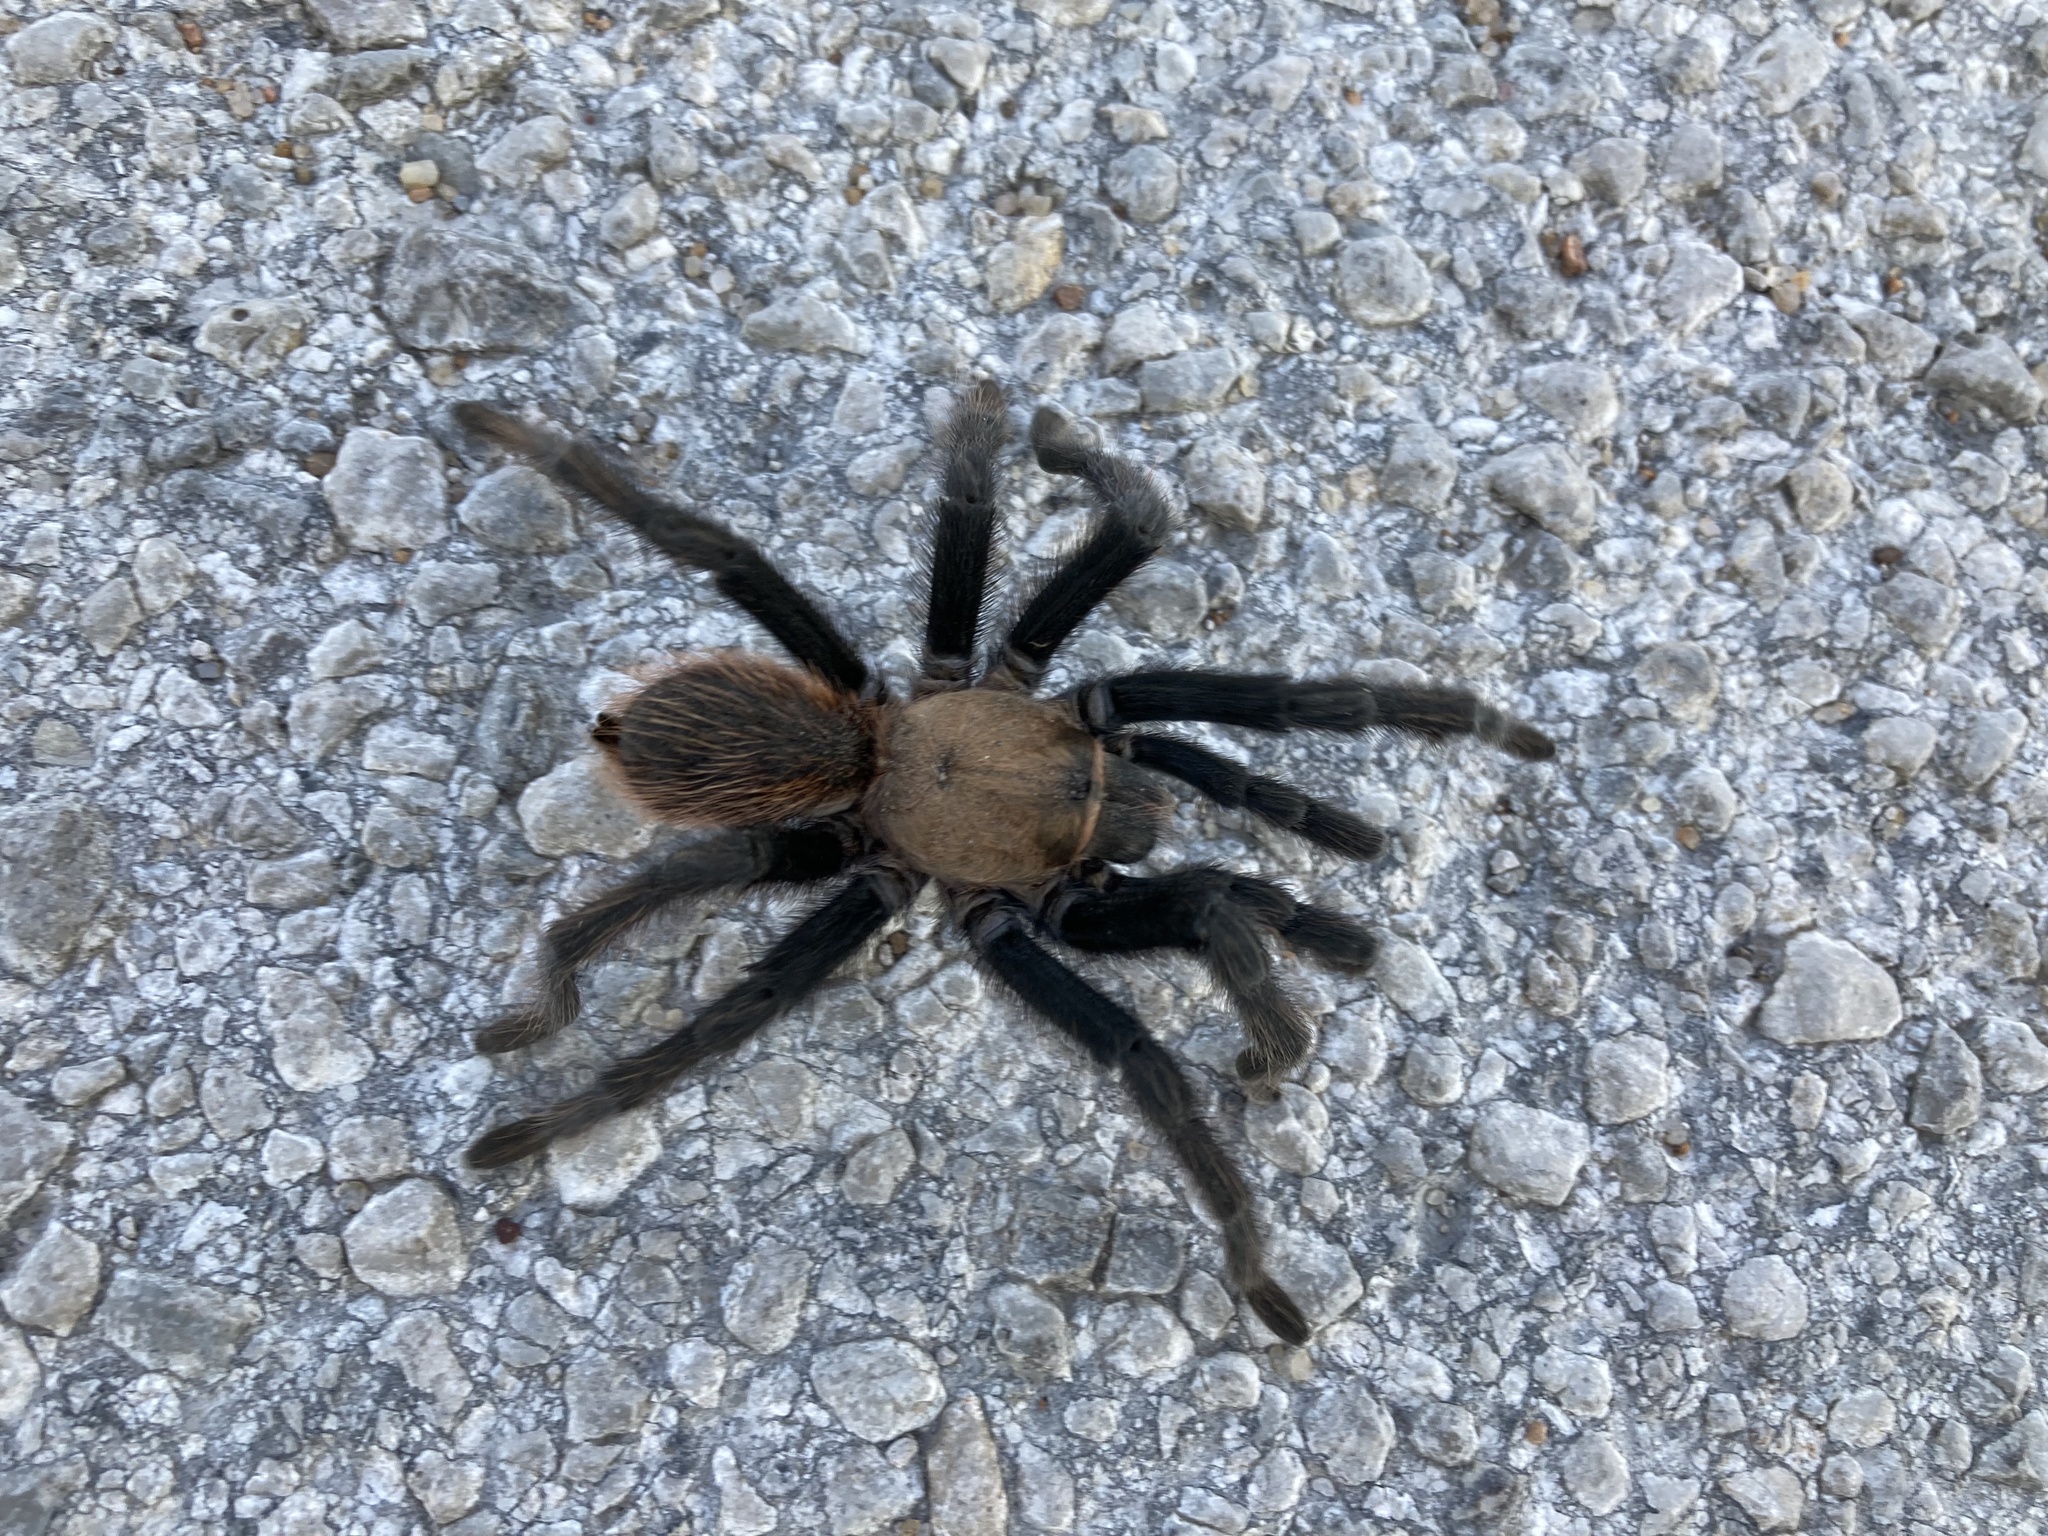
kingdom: Animalia
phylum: Arthropoda
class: Arachnida
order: Araneae
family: Theraphosidae
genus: Aphonopelma
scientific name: Aphonopelma hentzi
